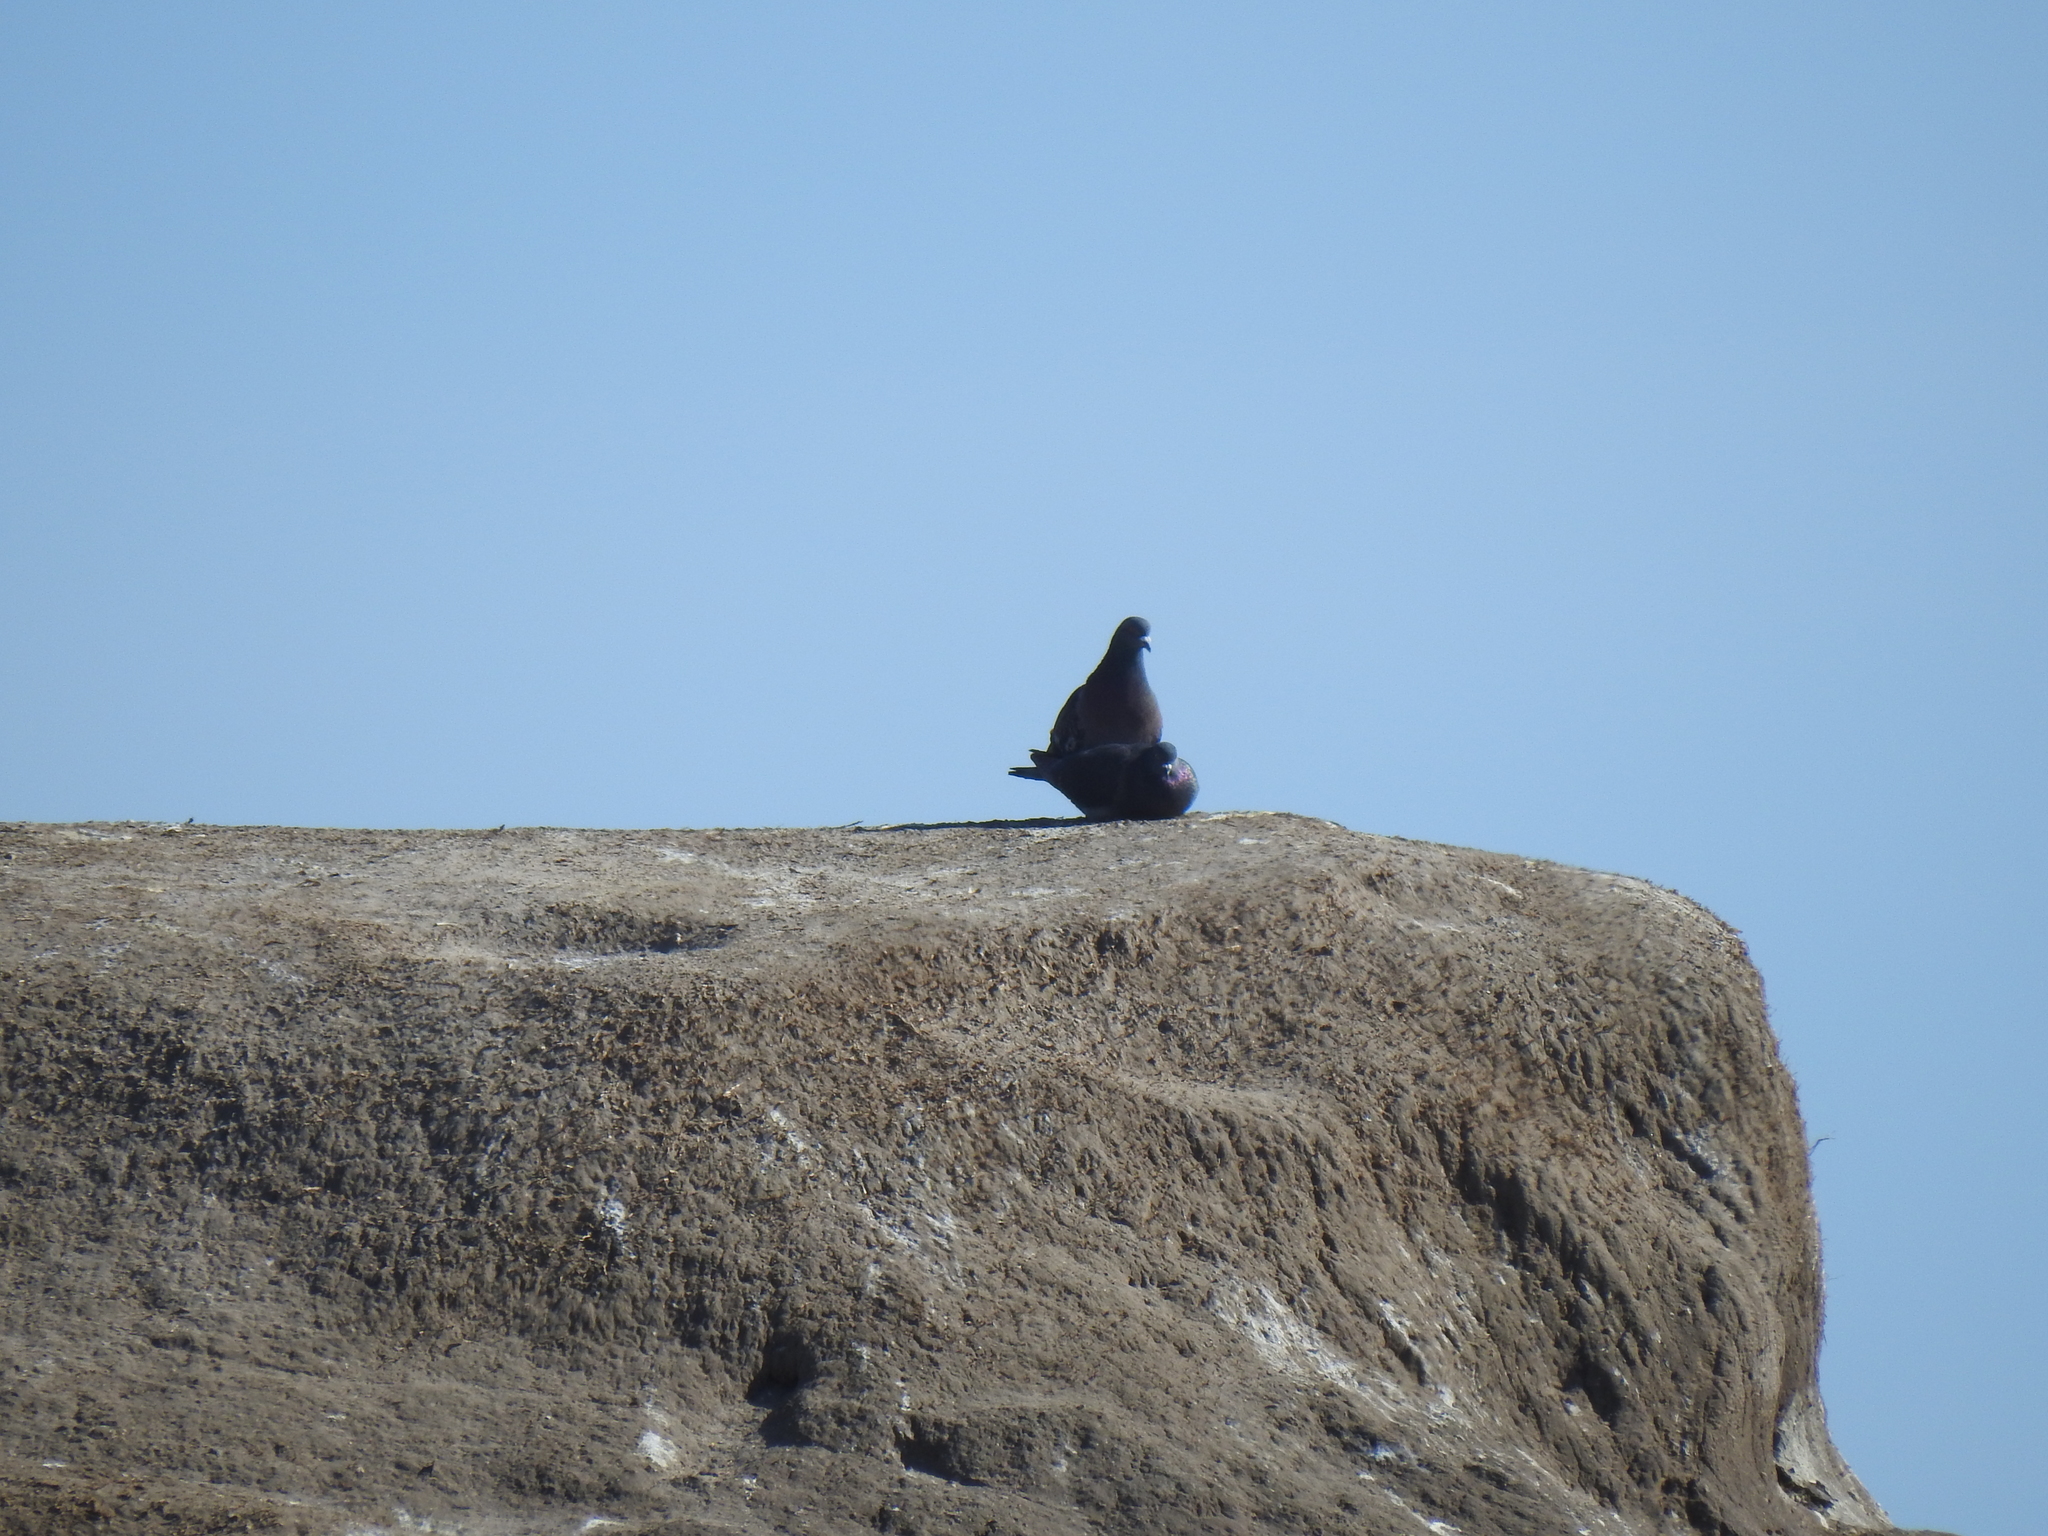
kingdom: Animalia
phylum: Chordata
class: Aves
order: Columbiformes
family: Columbidae
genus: Columba
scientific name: Columba livia
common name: Rock pigeon
